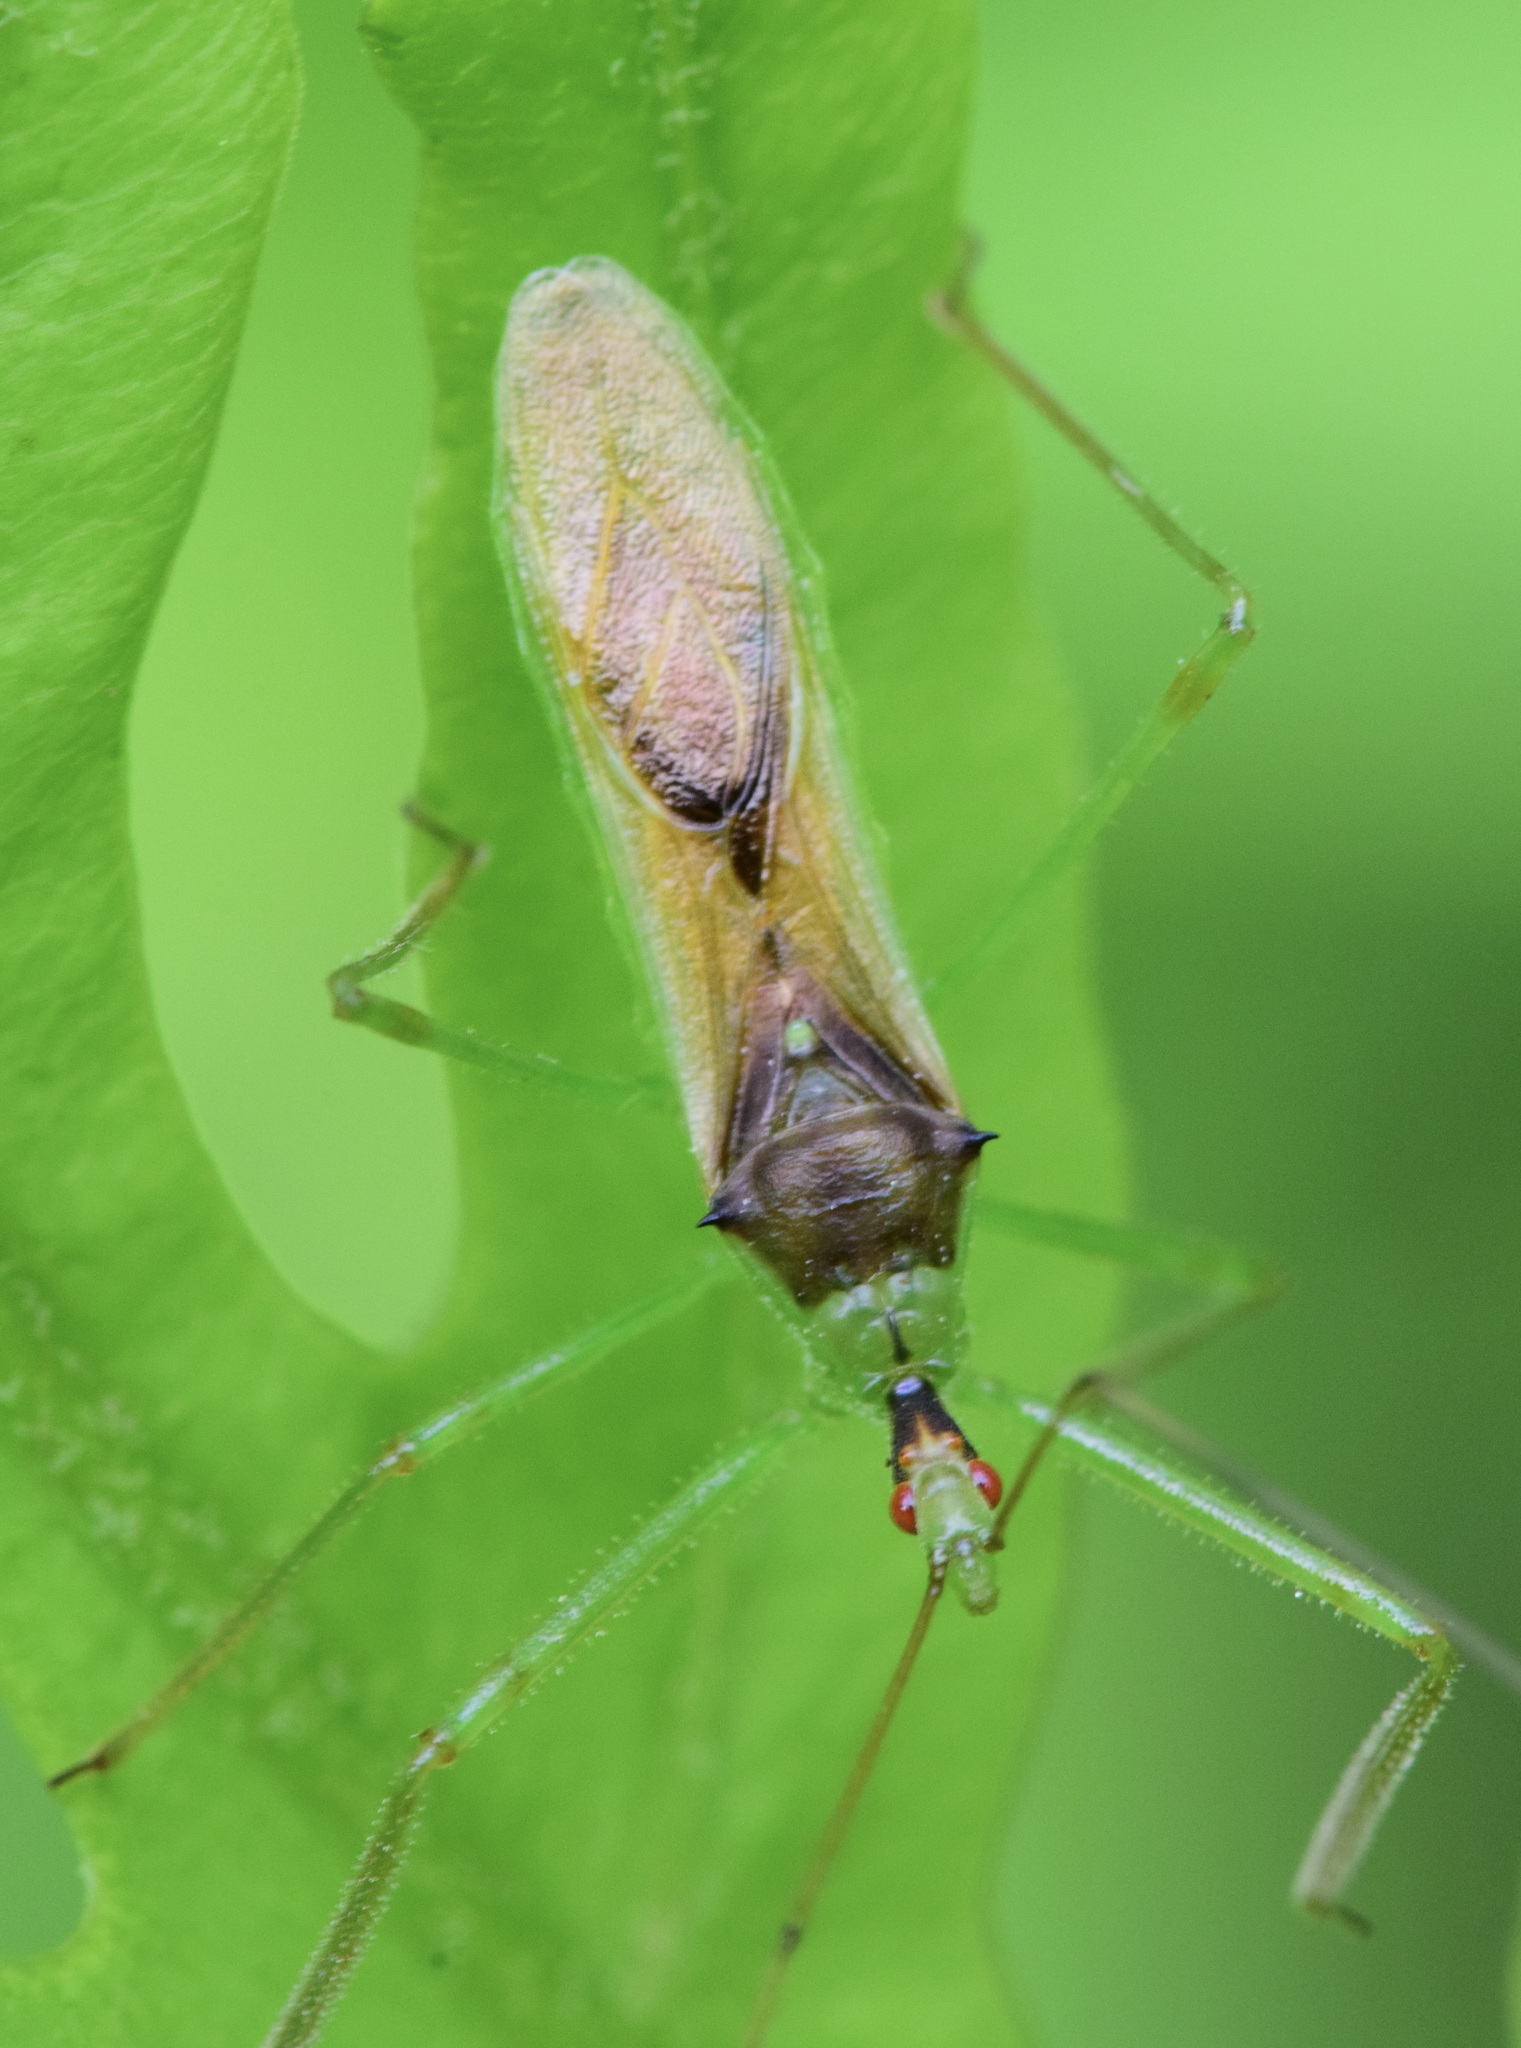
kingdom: Animalia
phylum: Arthropoda
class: Insecta
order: Hemiptera
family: Reduviidae
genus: Zelus
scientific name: Zelus luridus
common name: Pale green assassin bug
